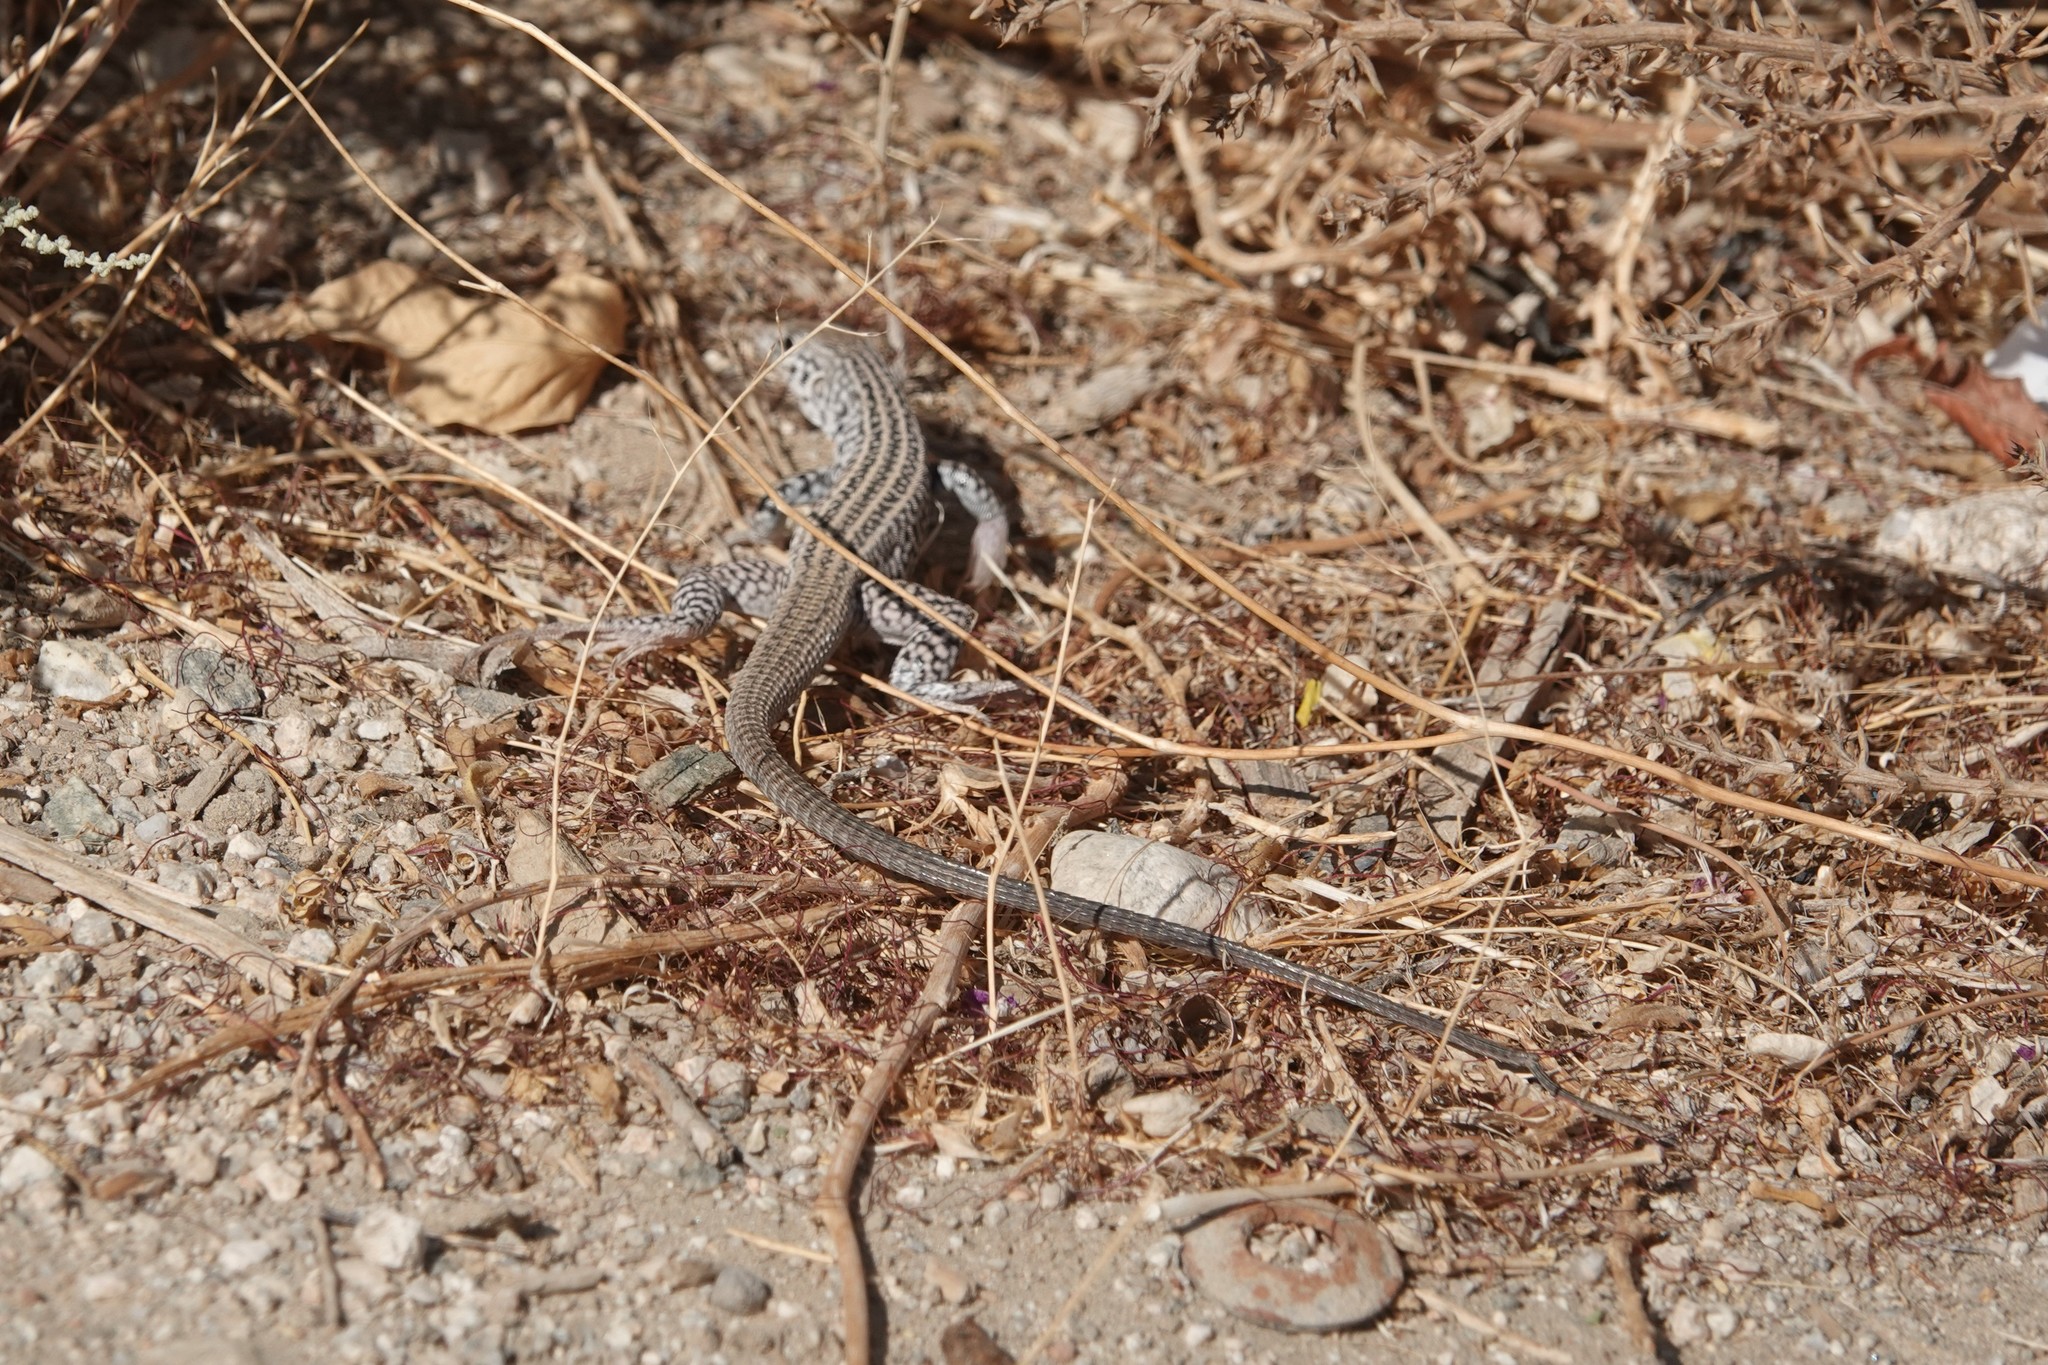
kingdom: Animalia
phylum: Chordata
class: Squamata
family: Teiidae
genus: Aspidoscelis
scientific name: Aspidoscelis tigris
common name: Tiger whiptail
